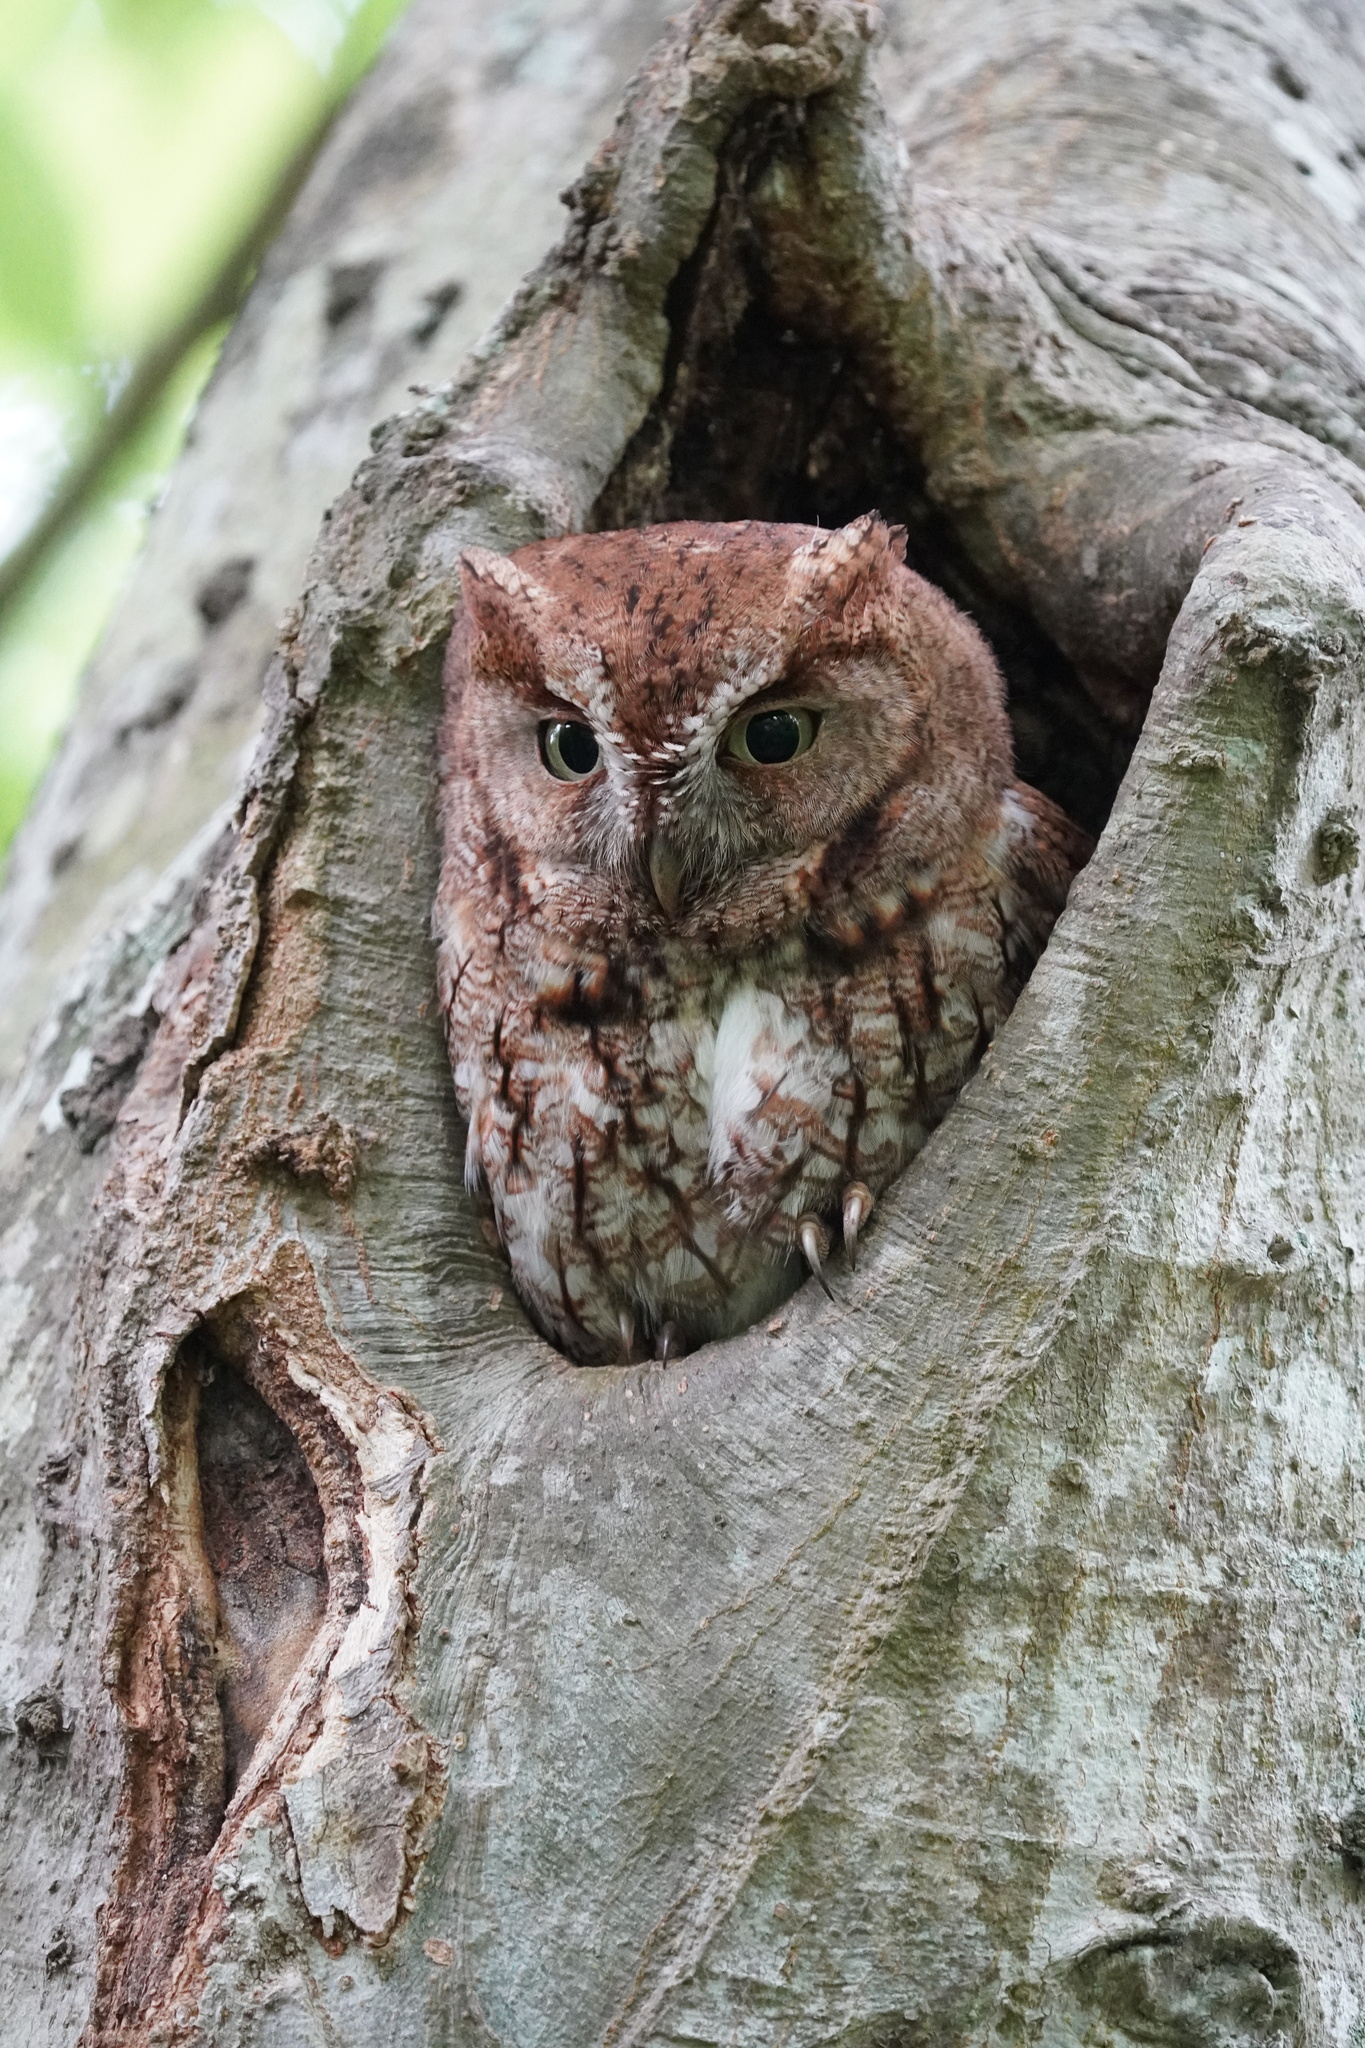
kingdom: Animalia
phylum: Chordata
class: Aves
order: Strigiformes
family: Strigidae
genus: Megascops
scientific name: Megascops asio
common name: Eastern screech-owl
